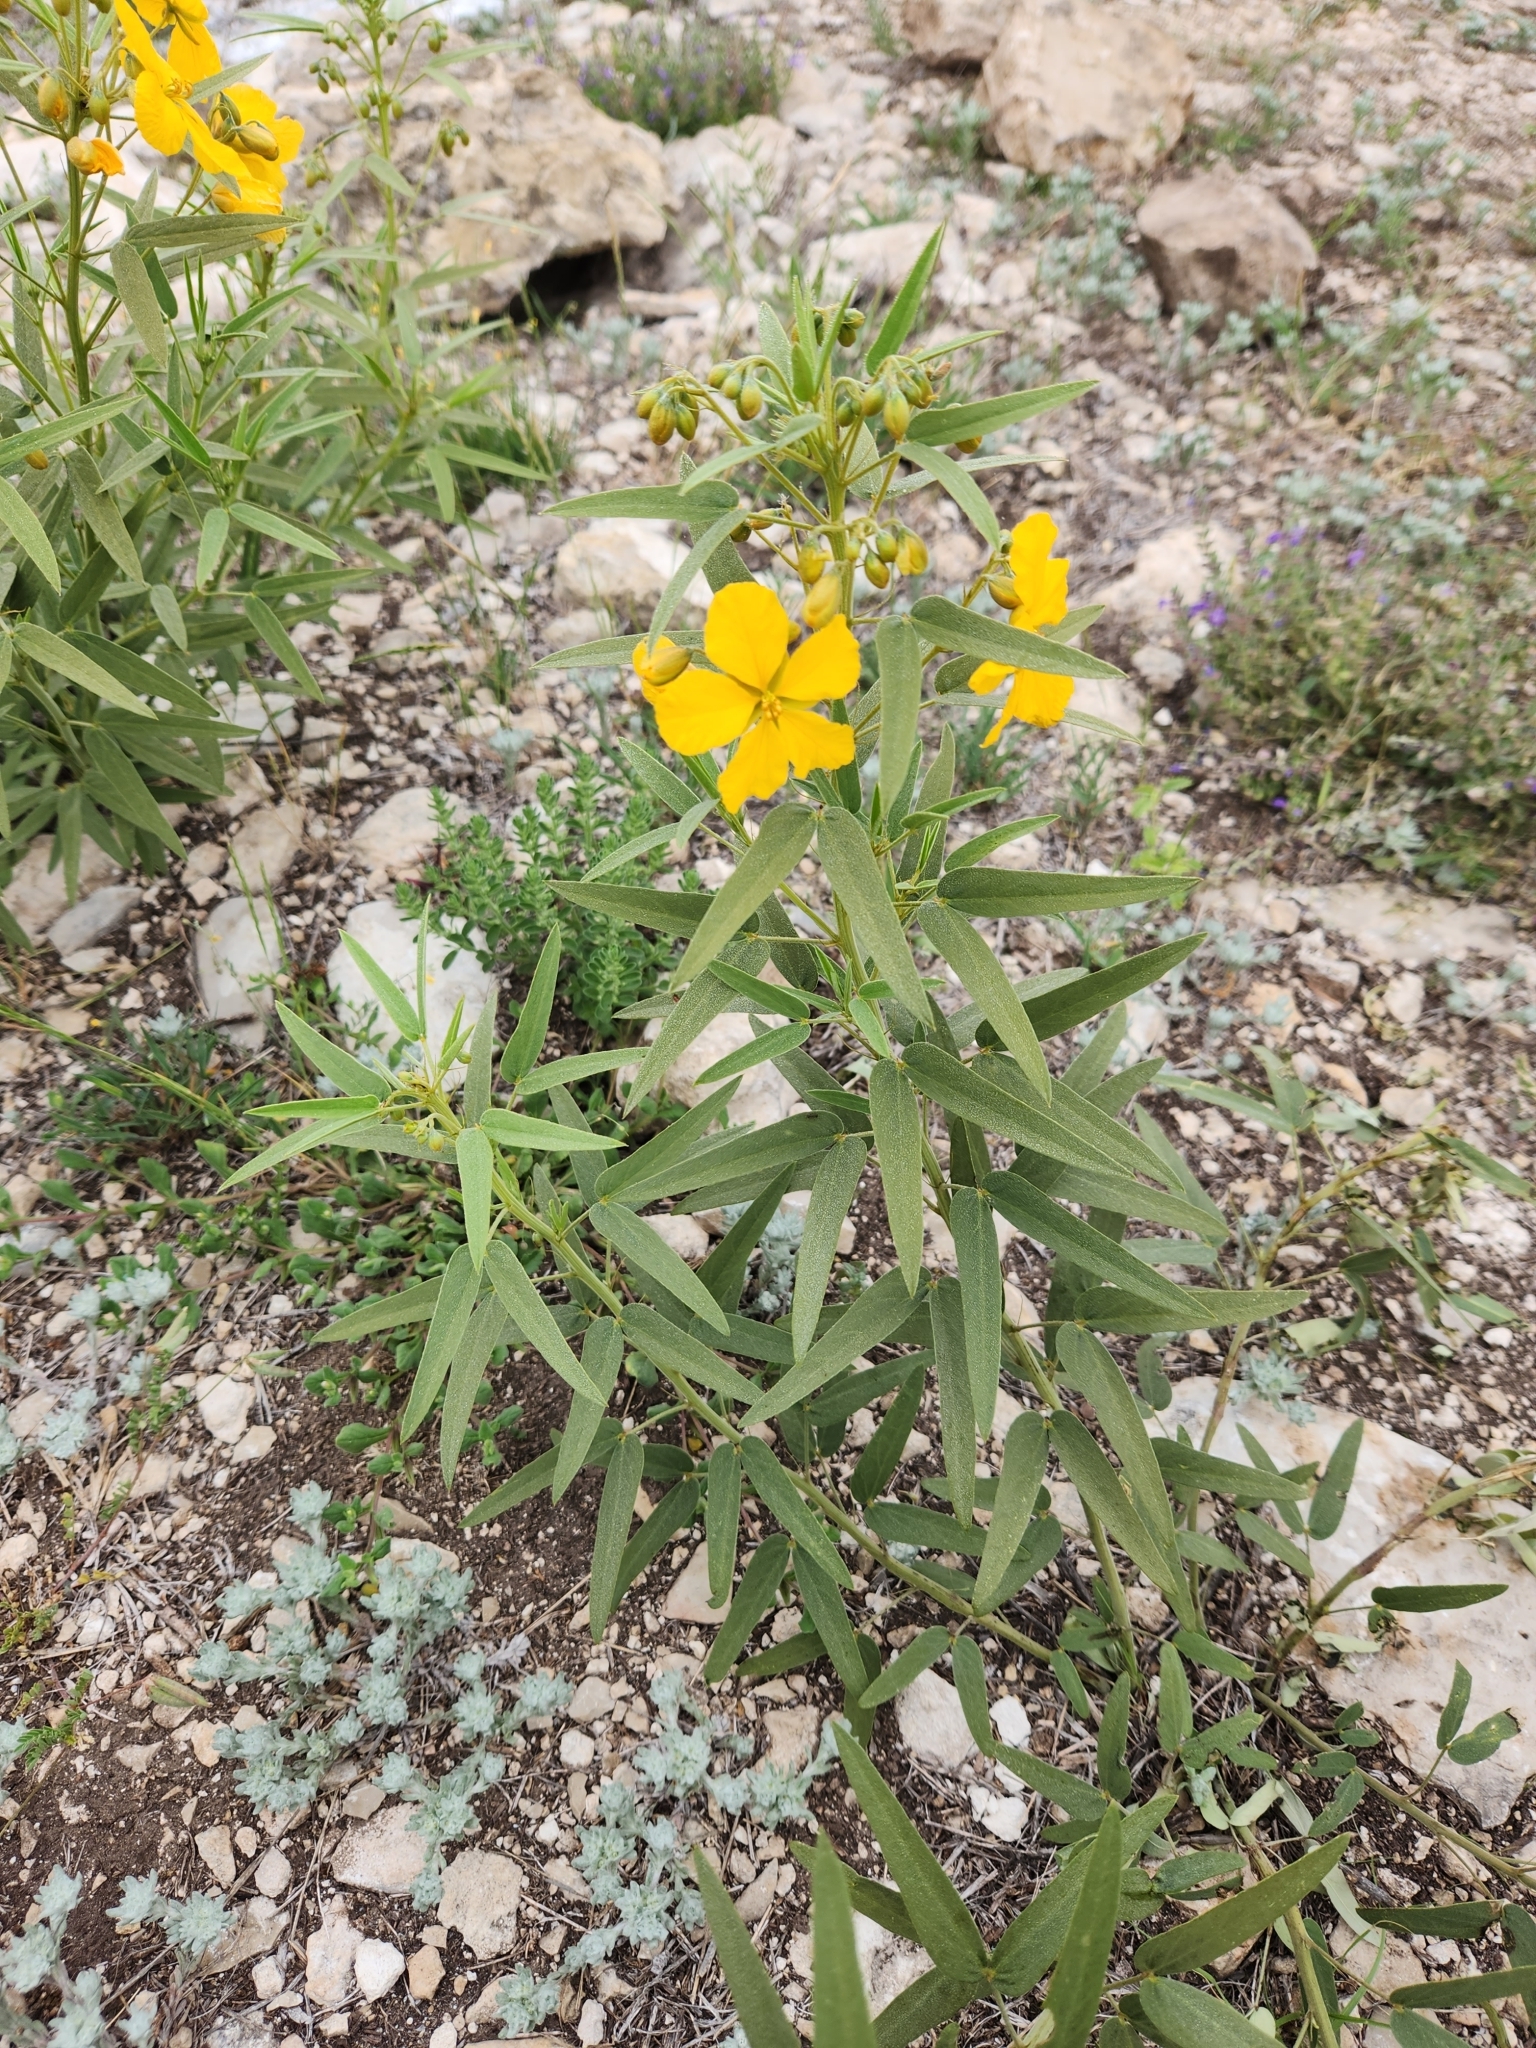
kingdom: Plantae
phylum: Tracheophyta
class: Magnoliopsida
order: Fabales
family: Fabaceae
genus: Senna
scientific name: Senna roemeriana
